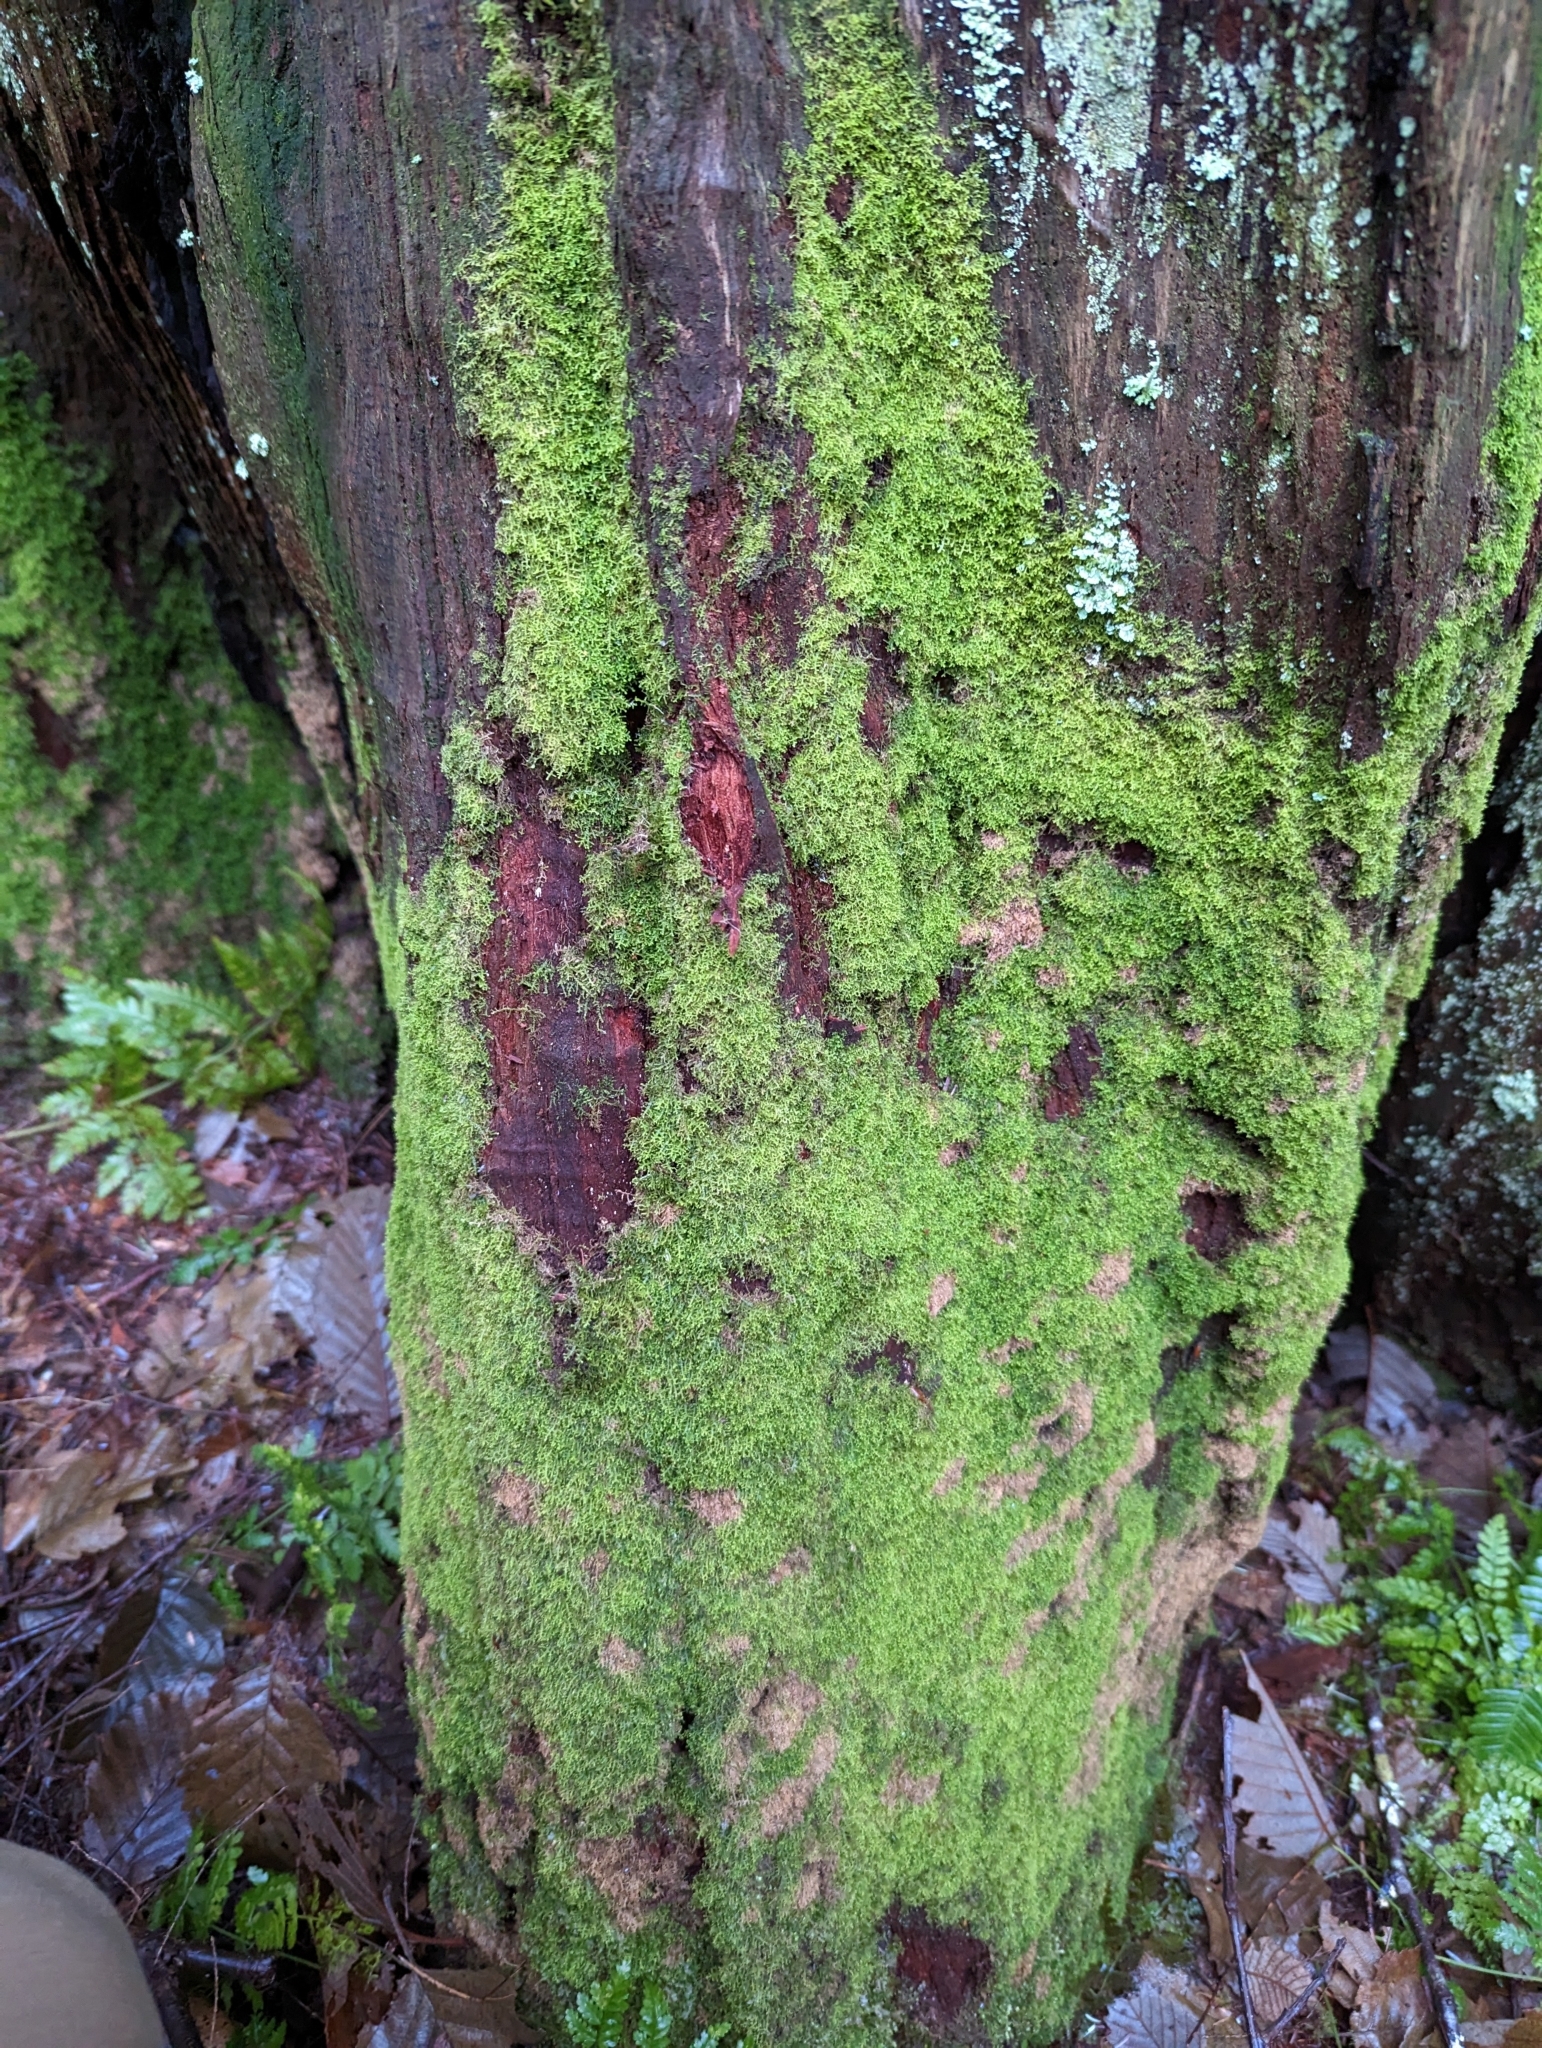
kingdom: Plantae
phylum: Marchantiophyta
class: Jungermanniopsida
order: Jungermanniales
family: Lepidoziaceae
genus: Lepidozia
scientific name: Lepidozia reptans
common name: Creeping fingerwort
